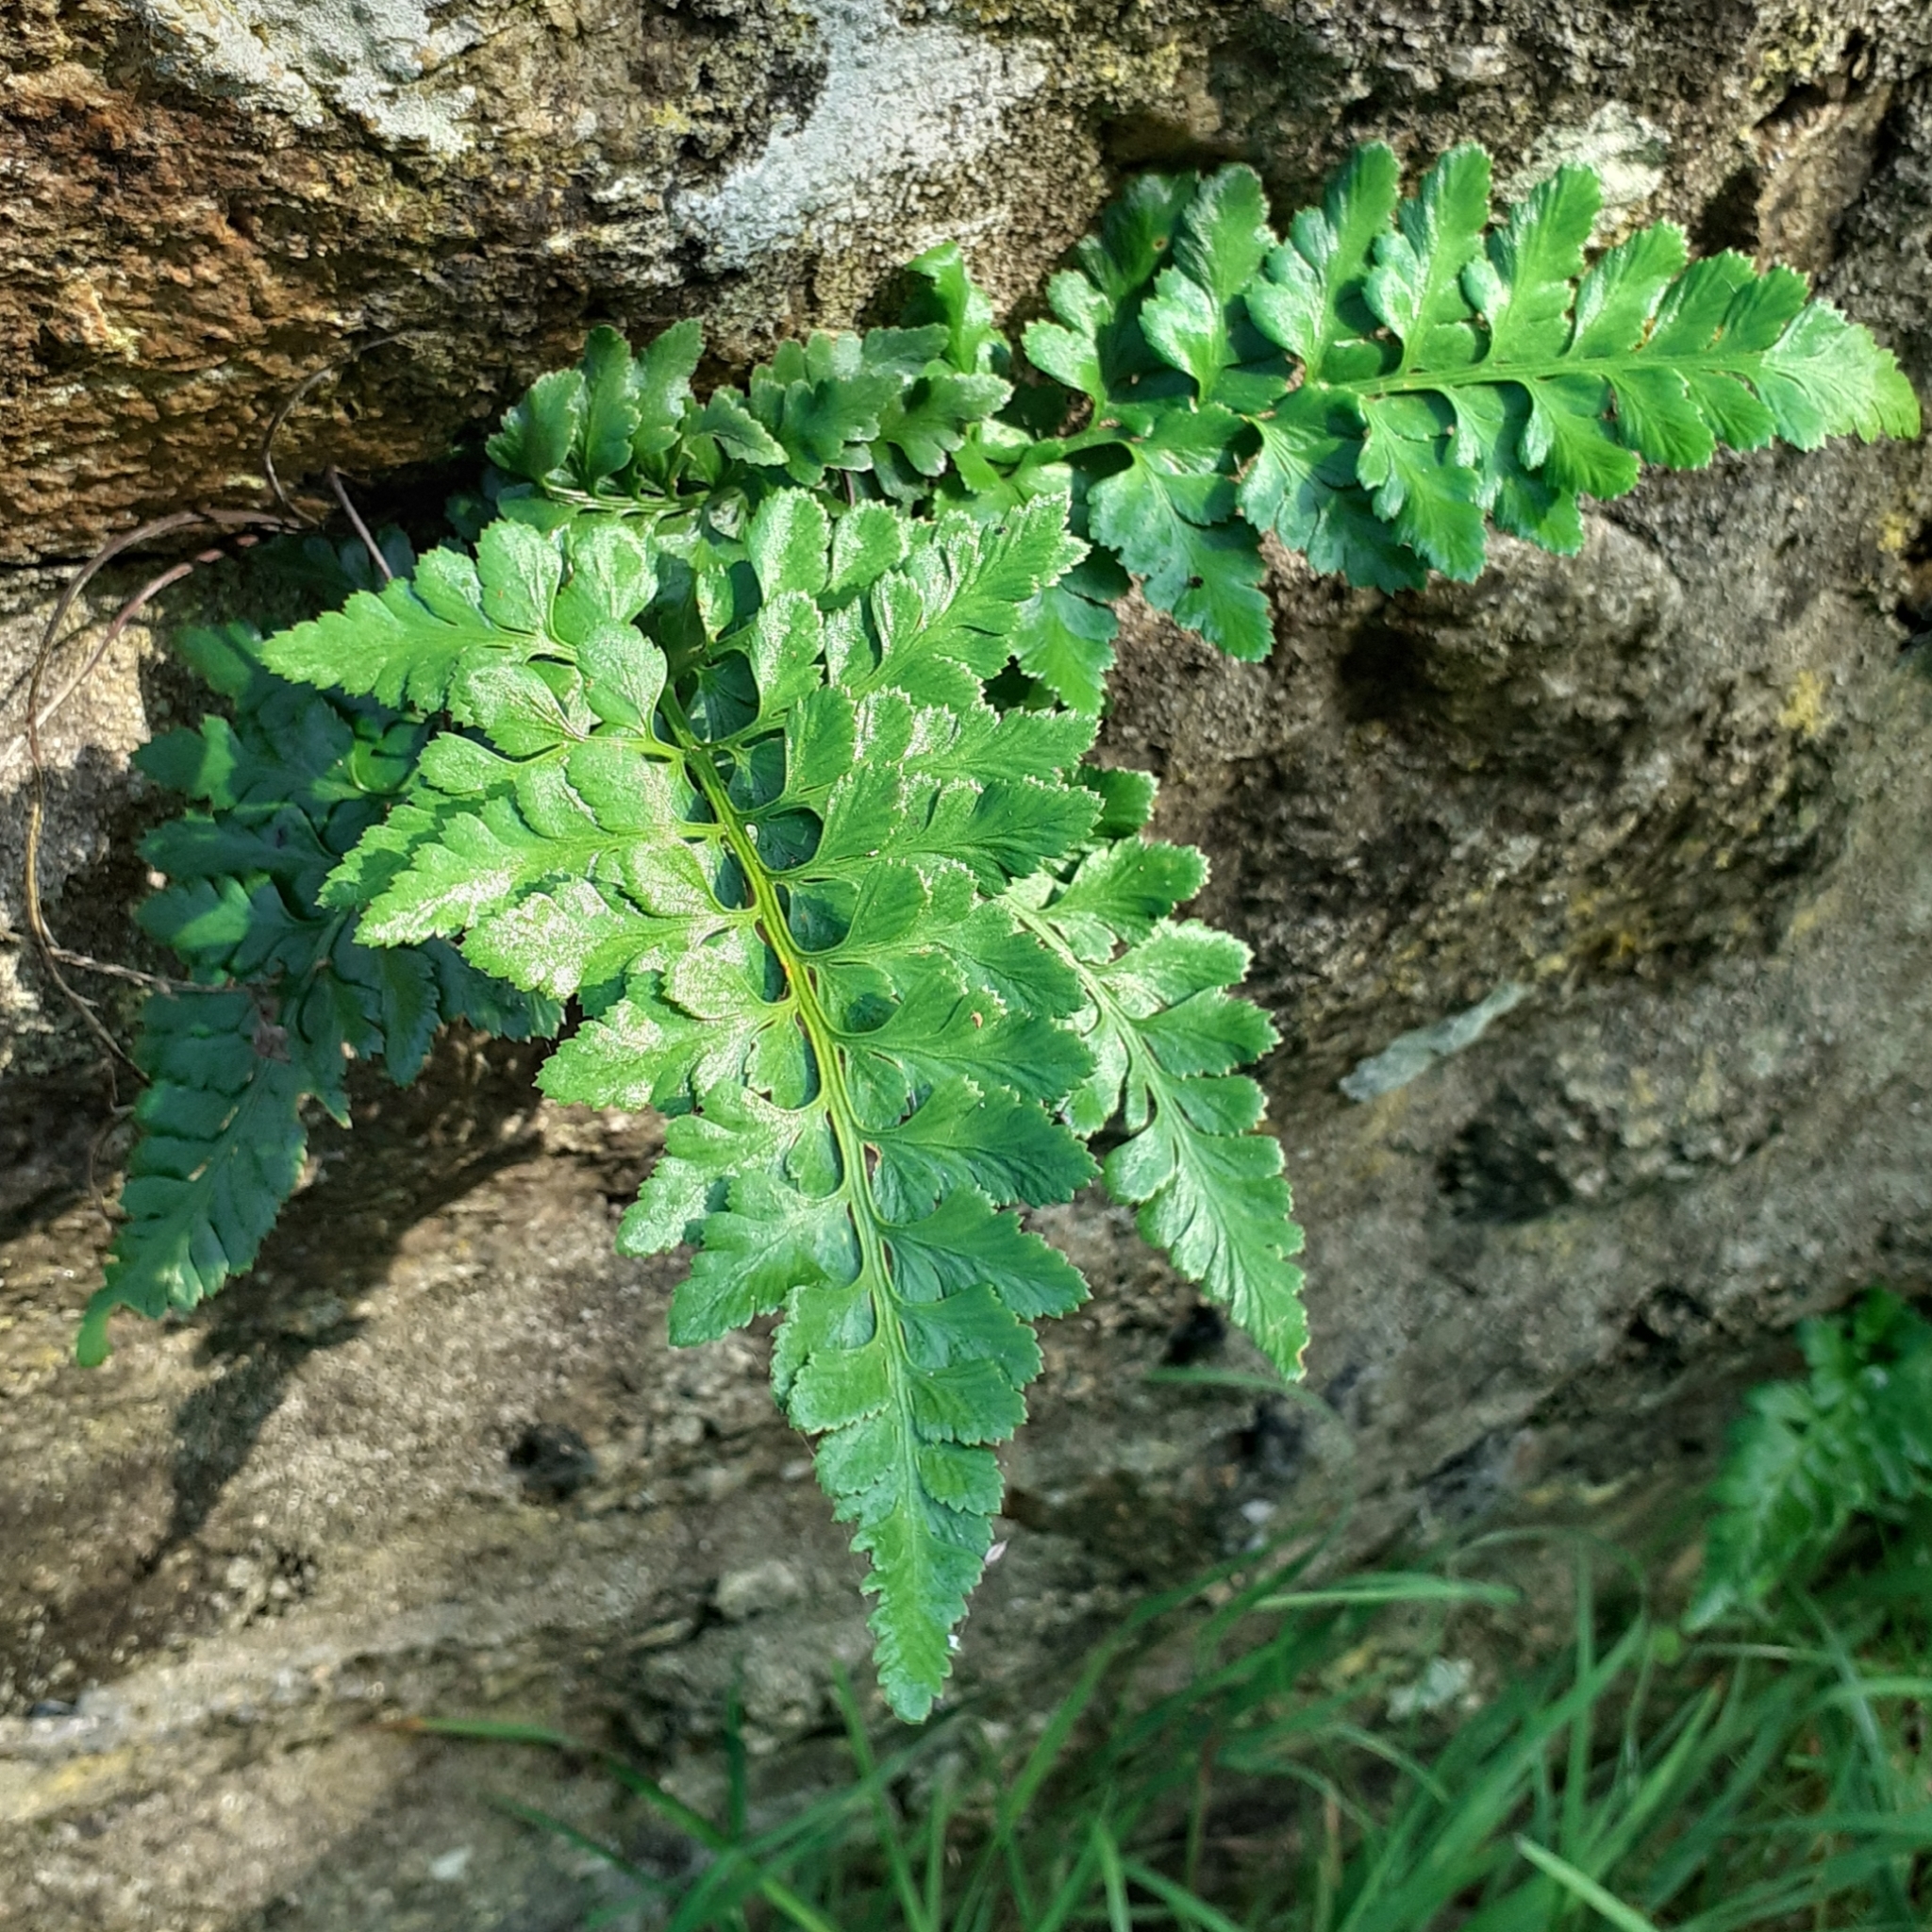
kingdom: Plantae
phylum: Tracheophyta
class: Polypodiopsida
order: Polypodiales
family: Aspleniaceae
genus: Asplenium
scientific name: Asplenium adiantum-nigrum
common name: Black spleenwort
